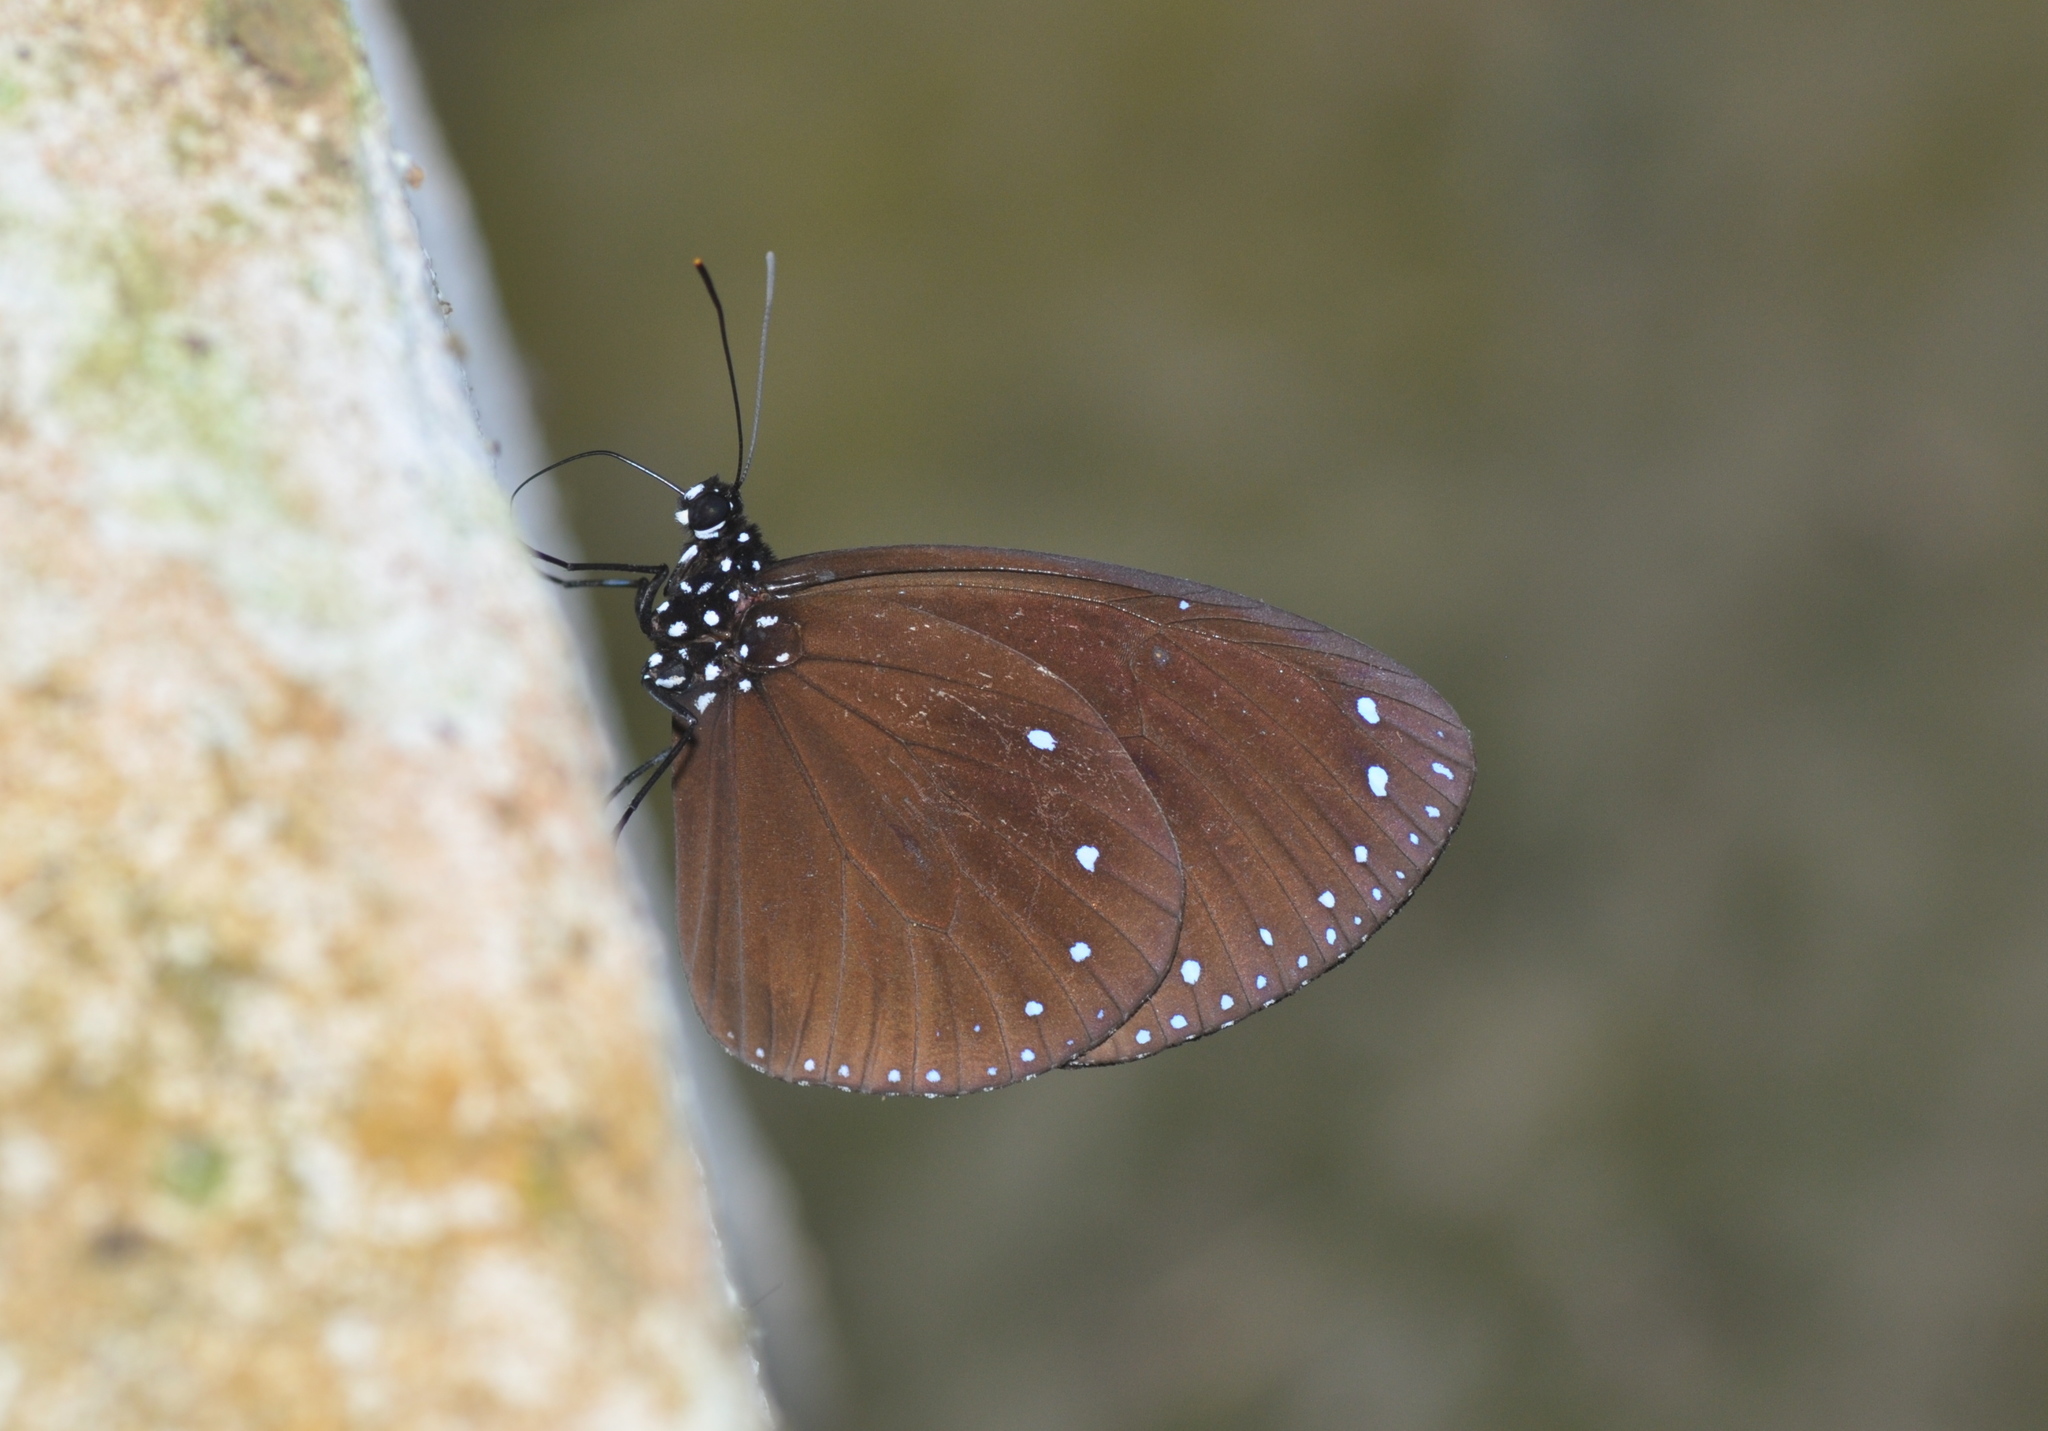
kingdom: Animalia
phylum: Arthropoda
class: Insecta
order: Lepidoptera
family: Nymphalidae
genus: Euploea
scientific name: Euploea tulliolus
